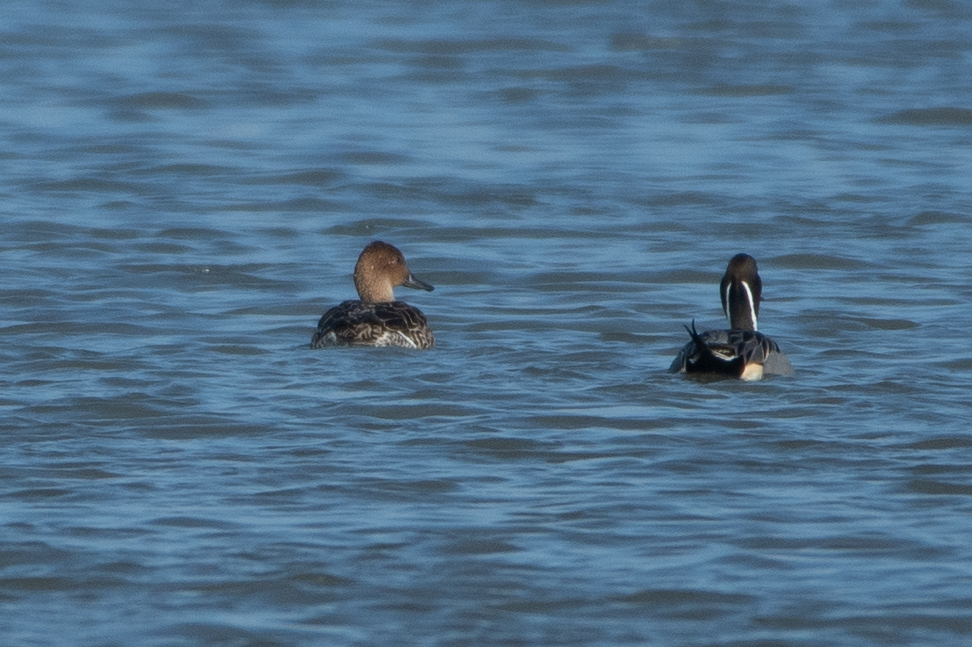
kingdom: Animalia
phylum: Chordata
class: Aves
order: Anseriformes
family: Anatidae
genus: Anas
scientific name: Anas acuta
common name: Northern pintail
